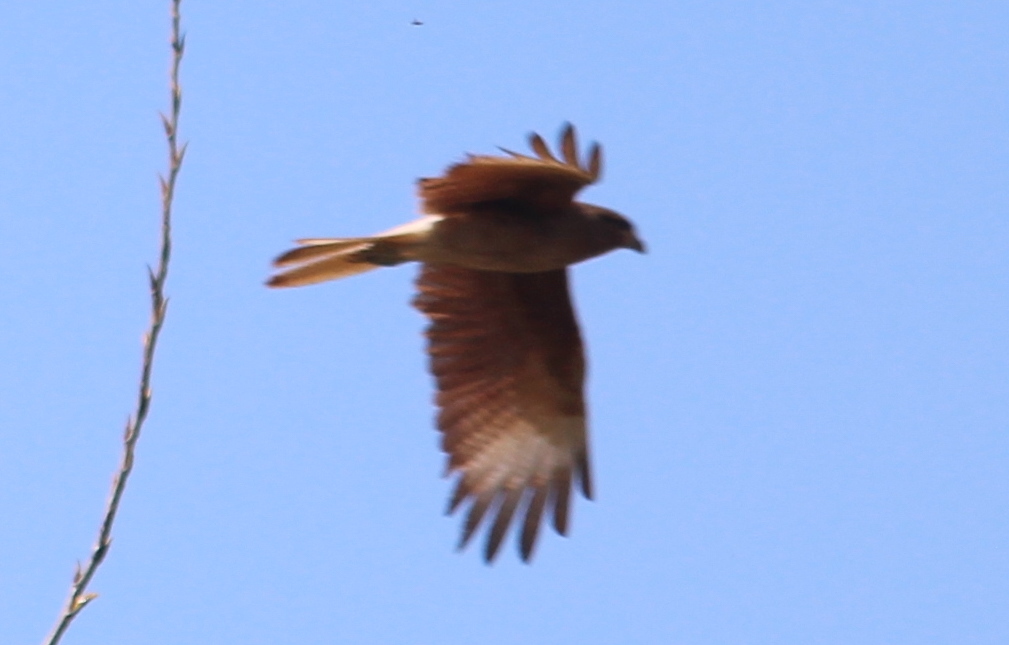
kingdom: Animalia
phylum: Chordata
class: Aves
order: Falconiformes
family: Falconidae
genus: Daptrius
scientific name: Daptrius
